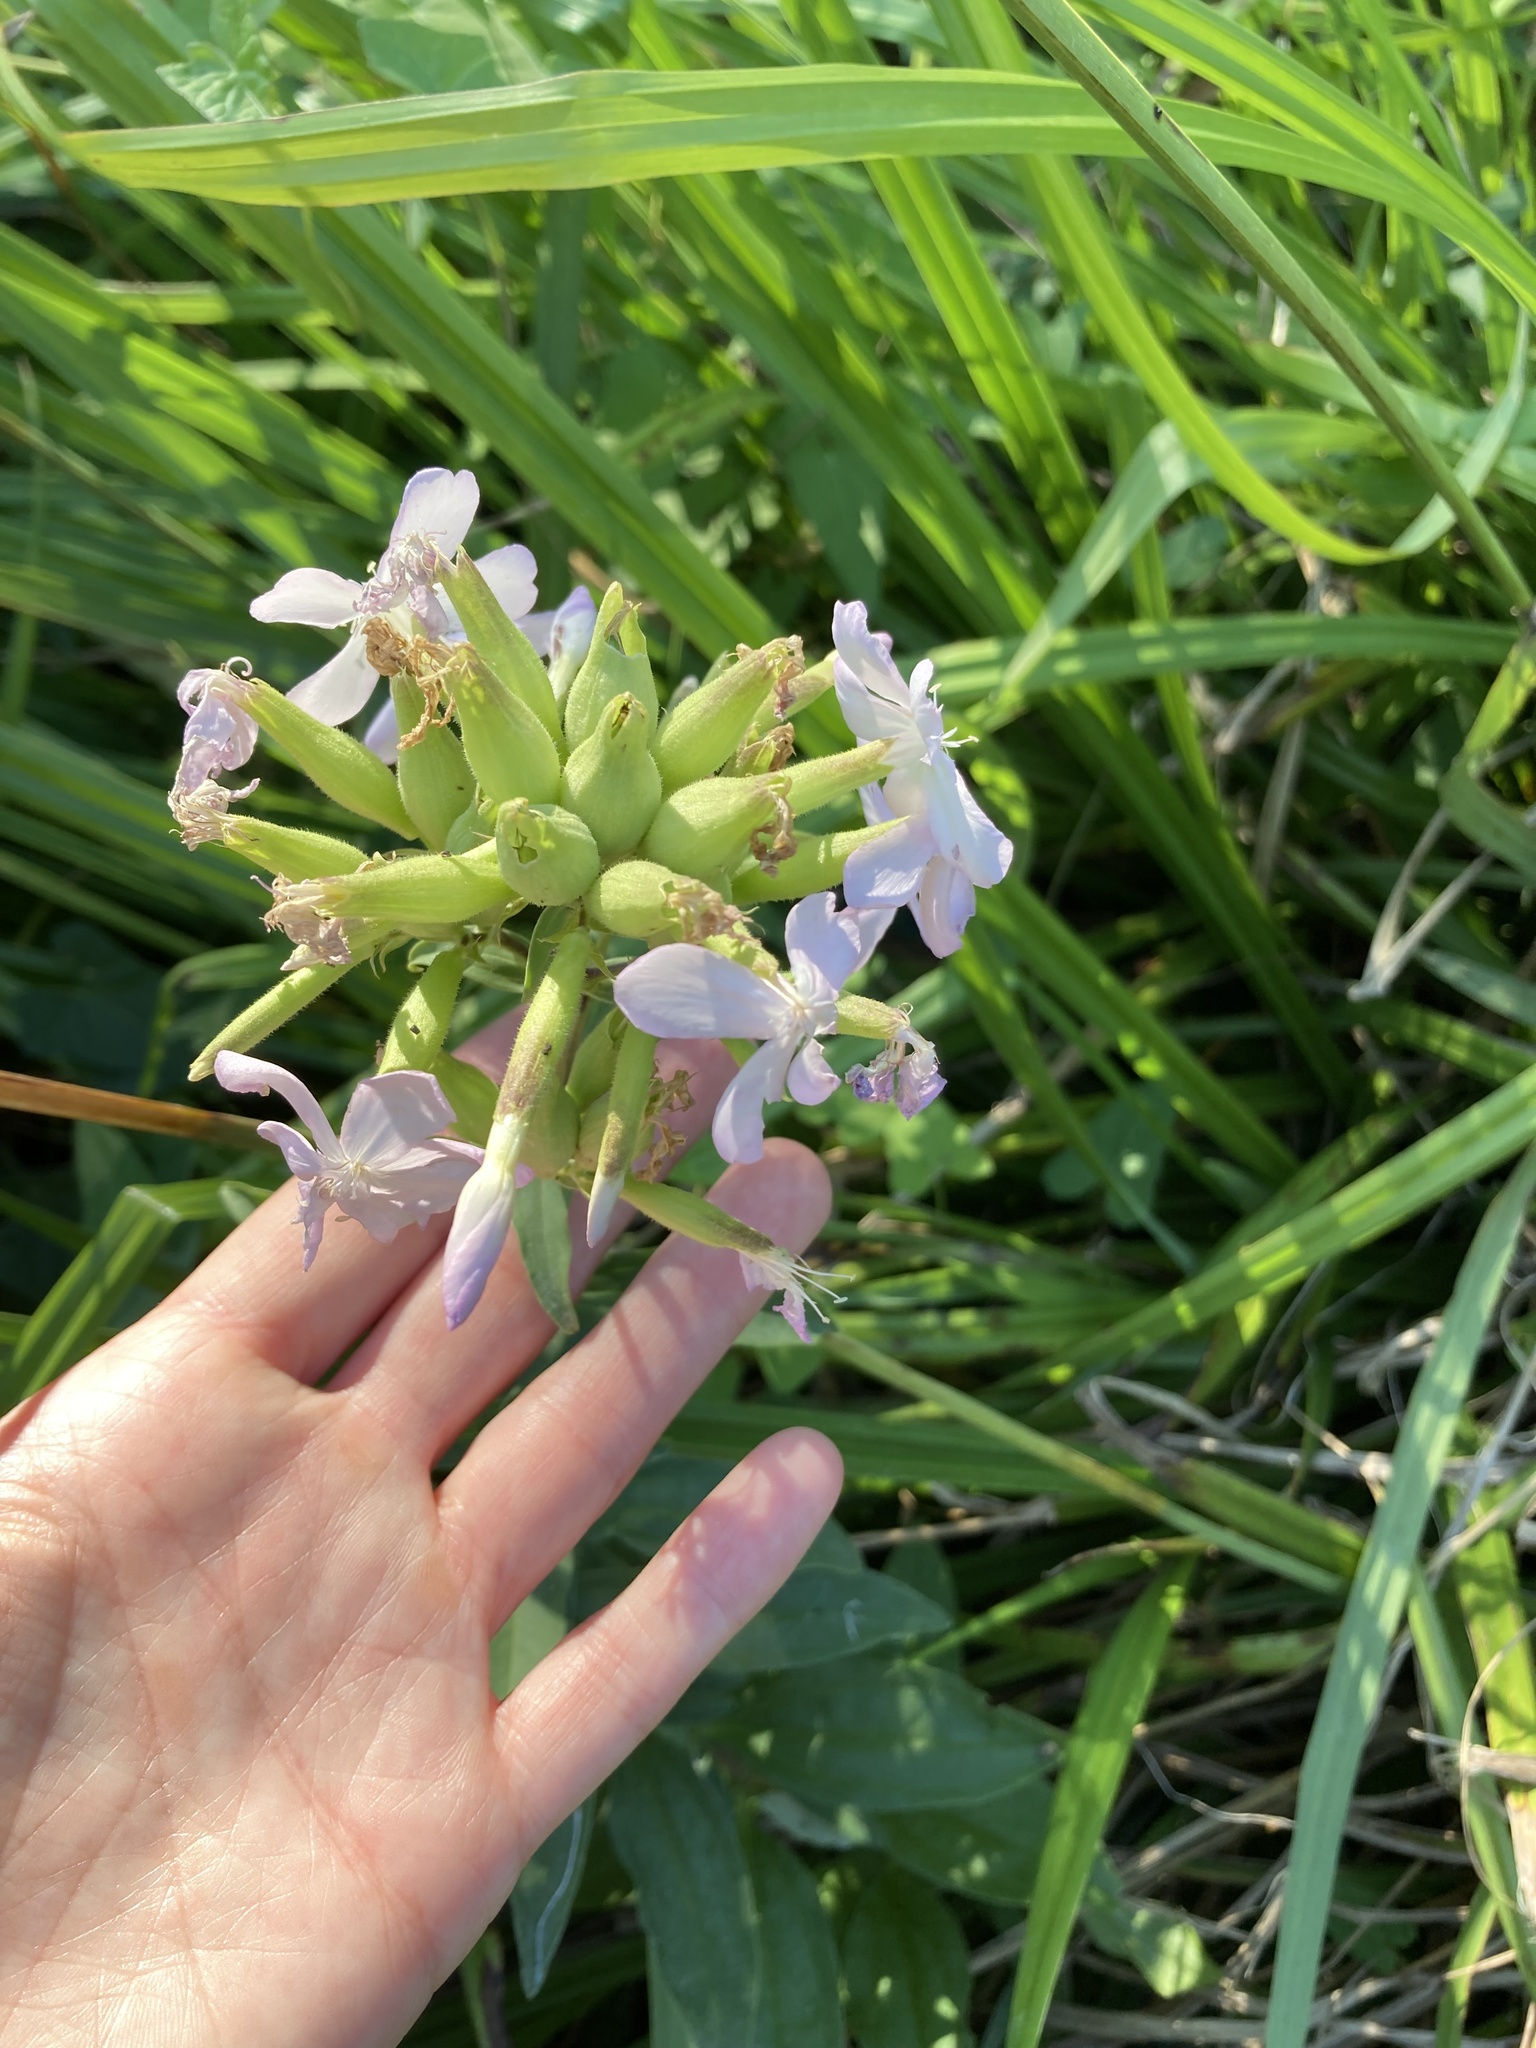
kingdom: Plantae
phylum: Tracheophyta
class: Magnoliopsida
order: Caryophyllales
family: Caryophyllaceae
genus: Saponaria
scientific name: Saponaria officinalis
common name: Soapwort
